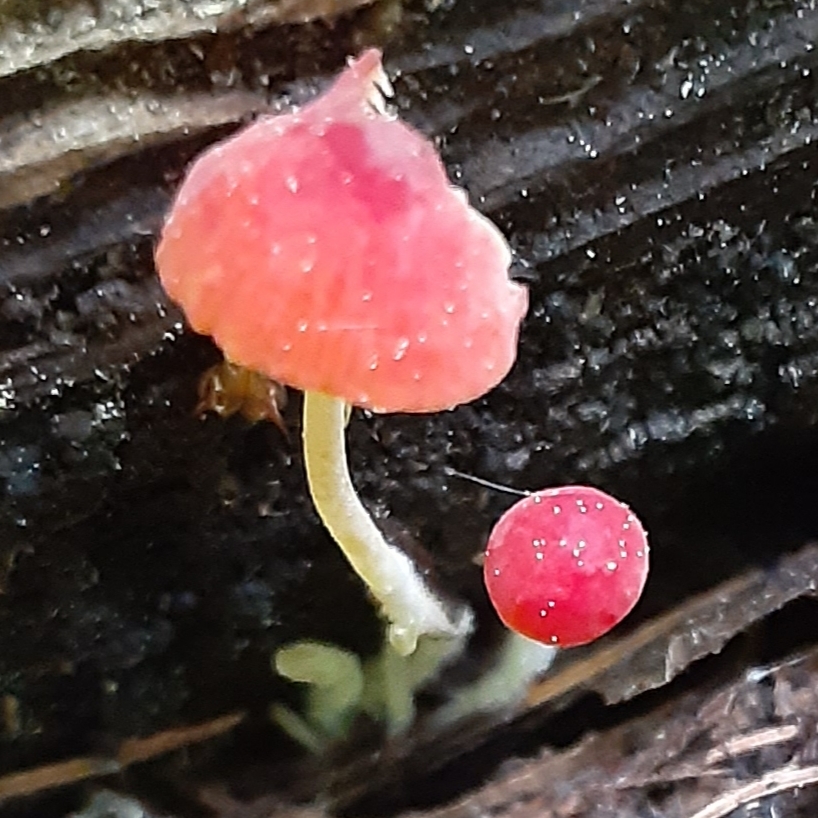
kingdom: Fungi
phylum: Basidiomycota
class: Agaricomycetes
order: Agaricales
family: Mycenaceae
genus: Mycena
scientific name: Mycena acicula
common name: Orange bonnet
